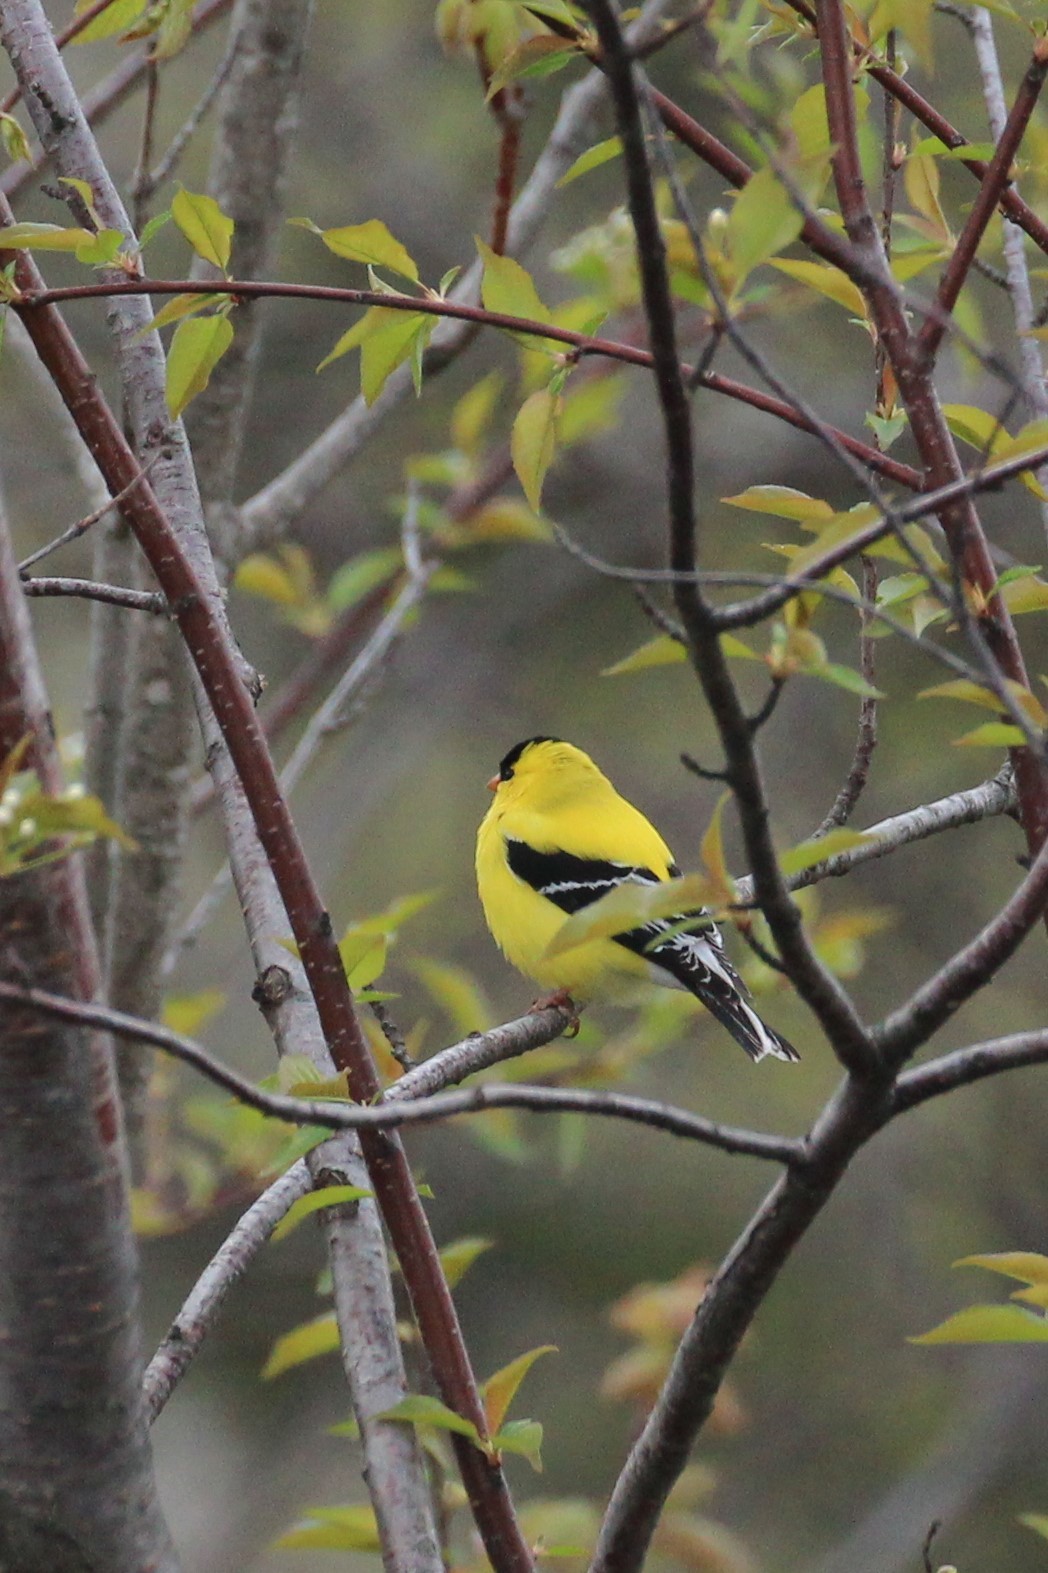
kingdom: Animalia
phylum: Chordata
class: Aves
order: Passeriformes
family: Fringillidae
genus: Spinus
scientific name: Spinus tristis
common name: American goldfinch
